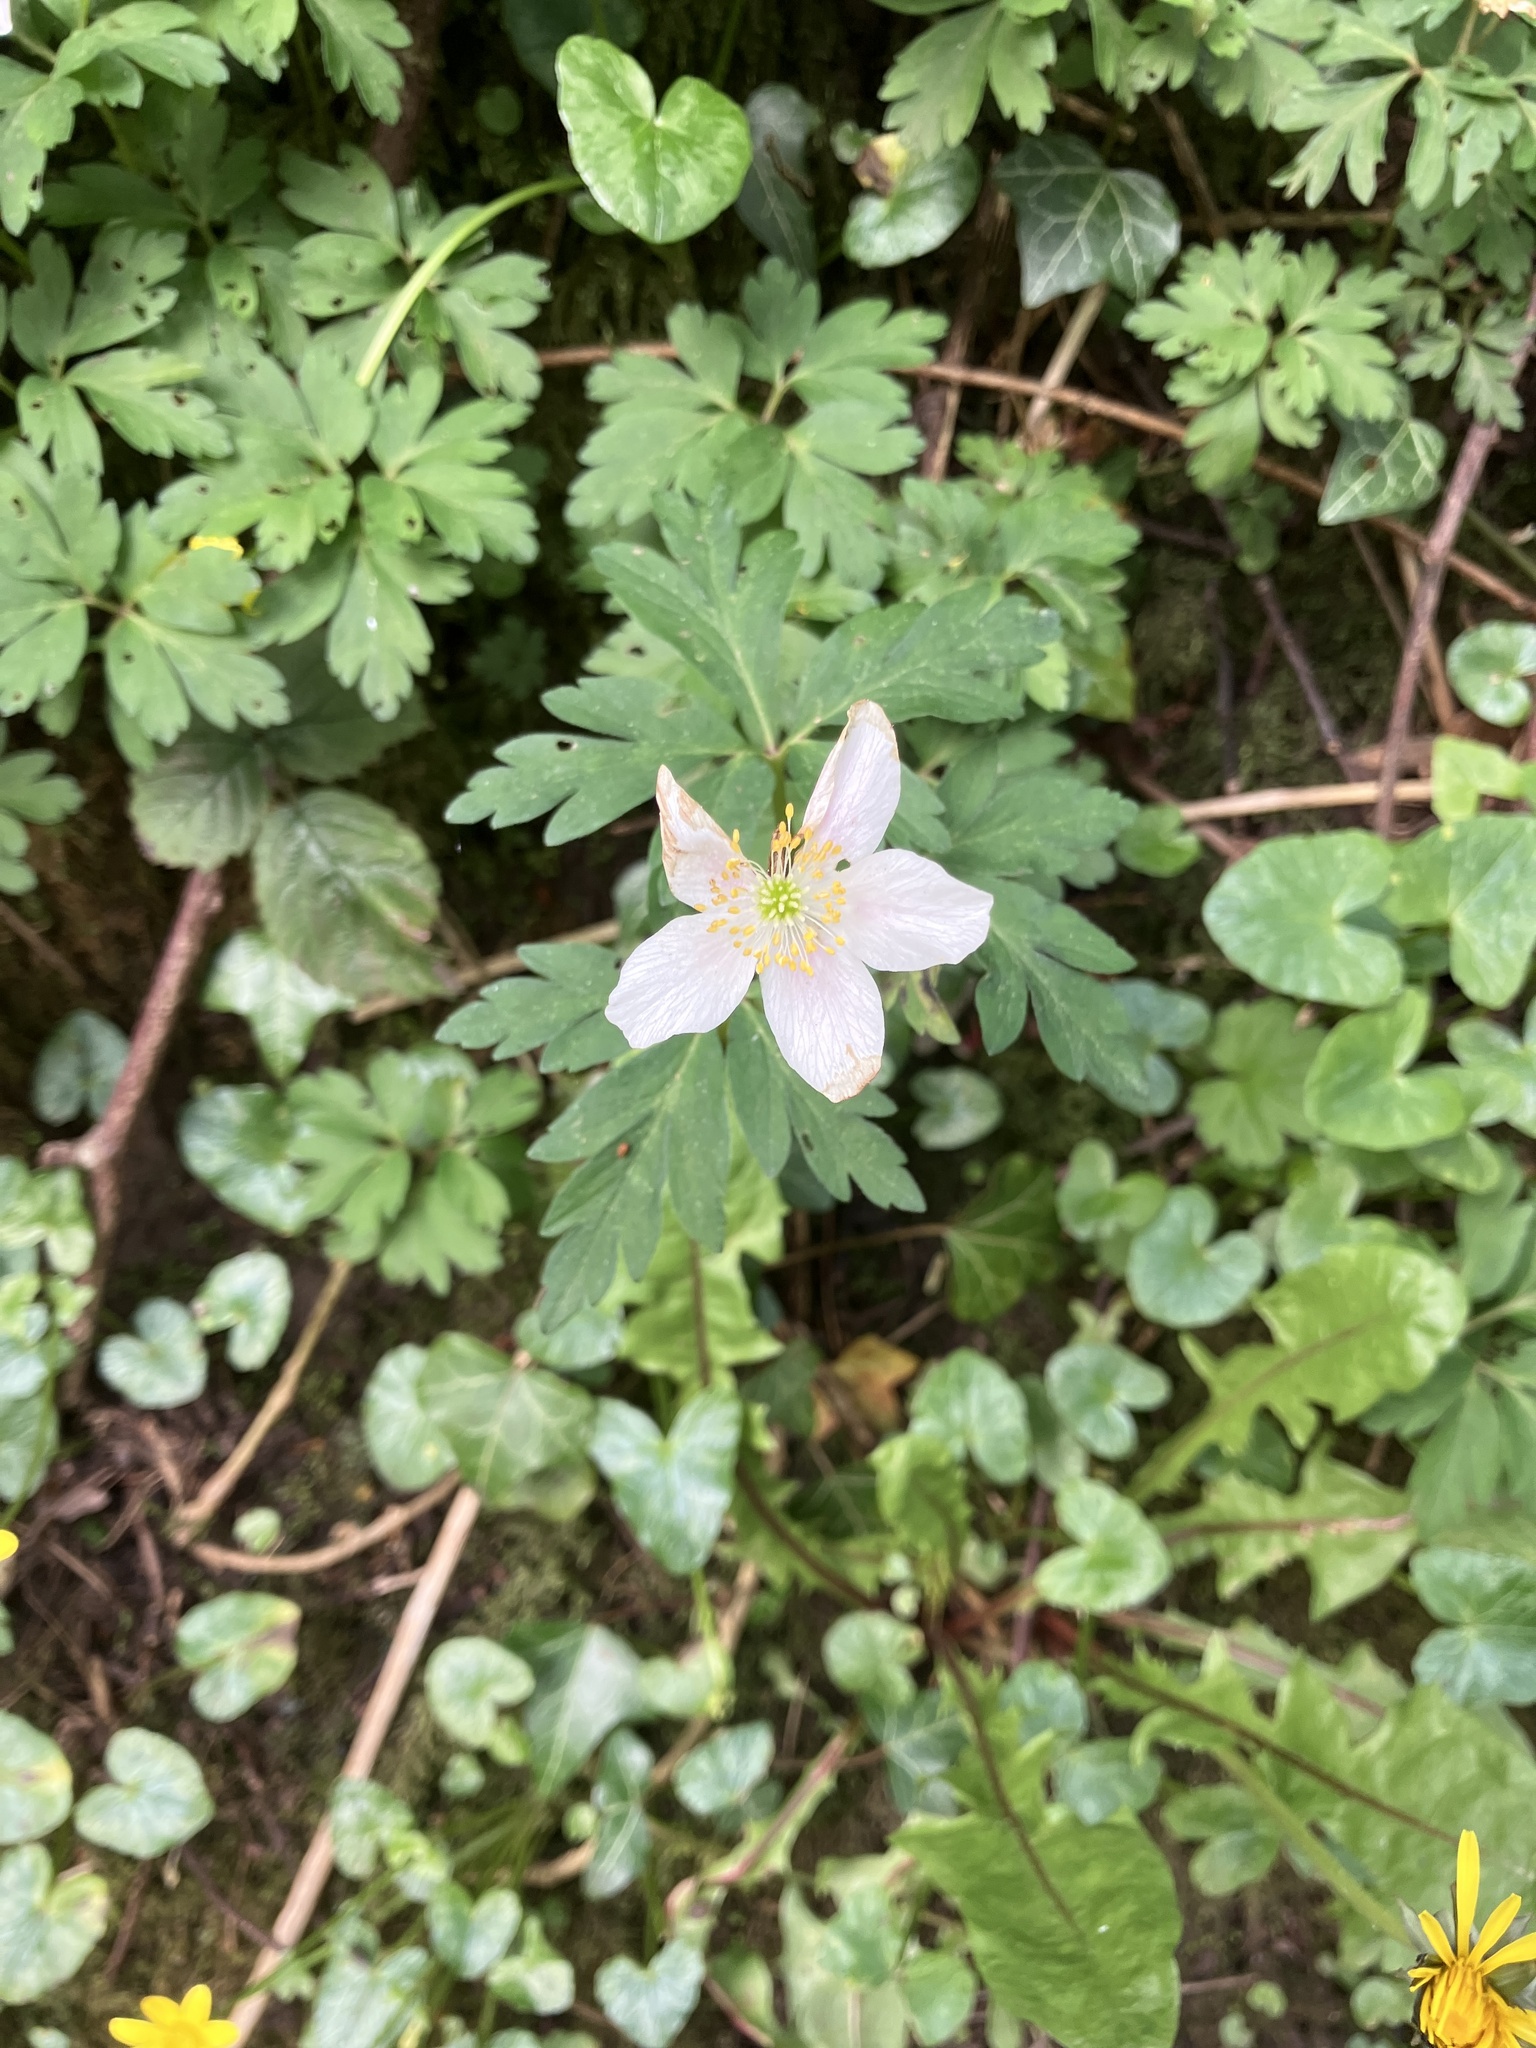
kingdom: Plantae
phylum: Tracheophyta
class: Magnoliopsida
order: Ranunculales
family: Ranunculaceae
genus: Anemone
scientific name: Anemone nemorosa
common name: Wood anemone
